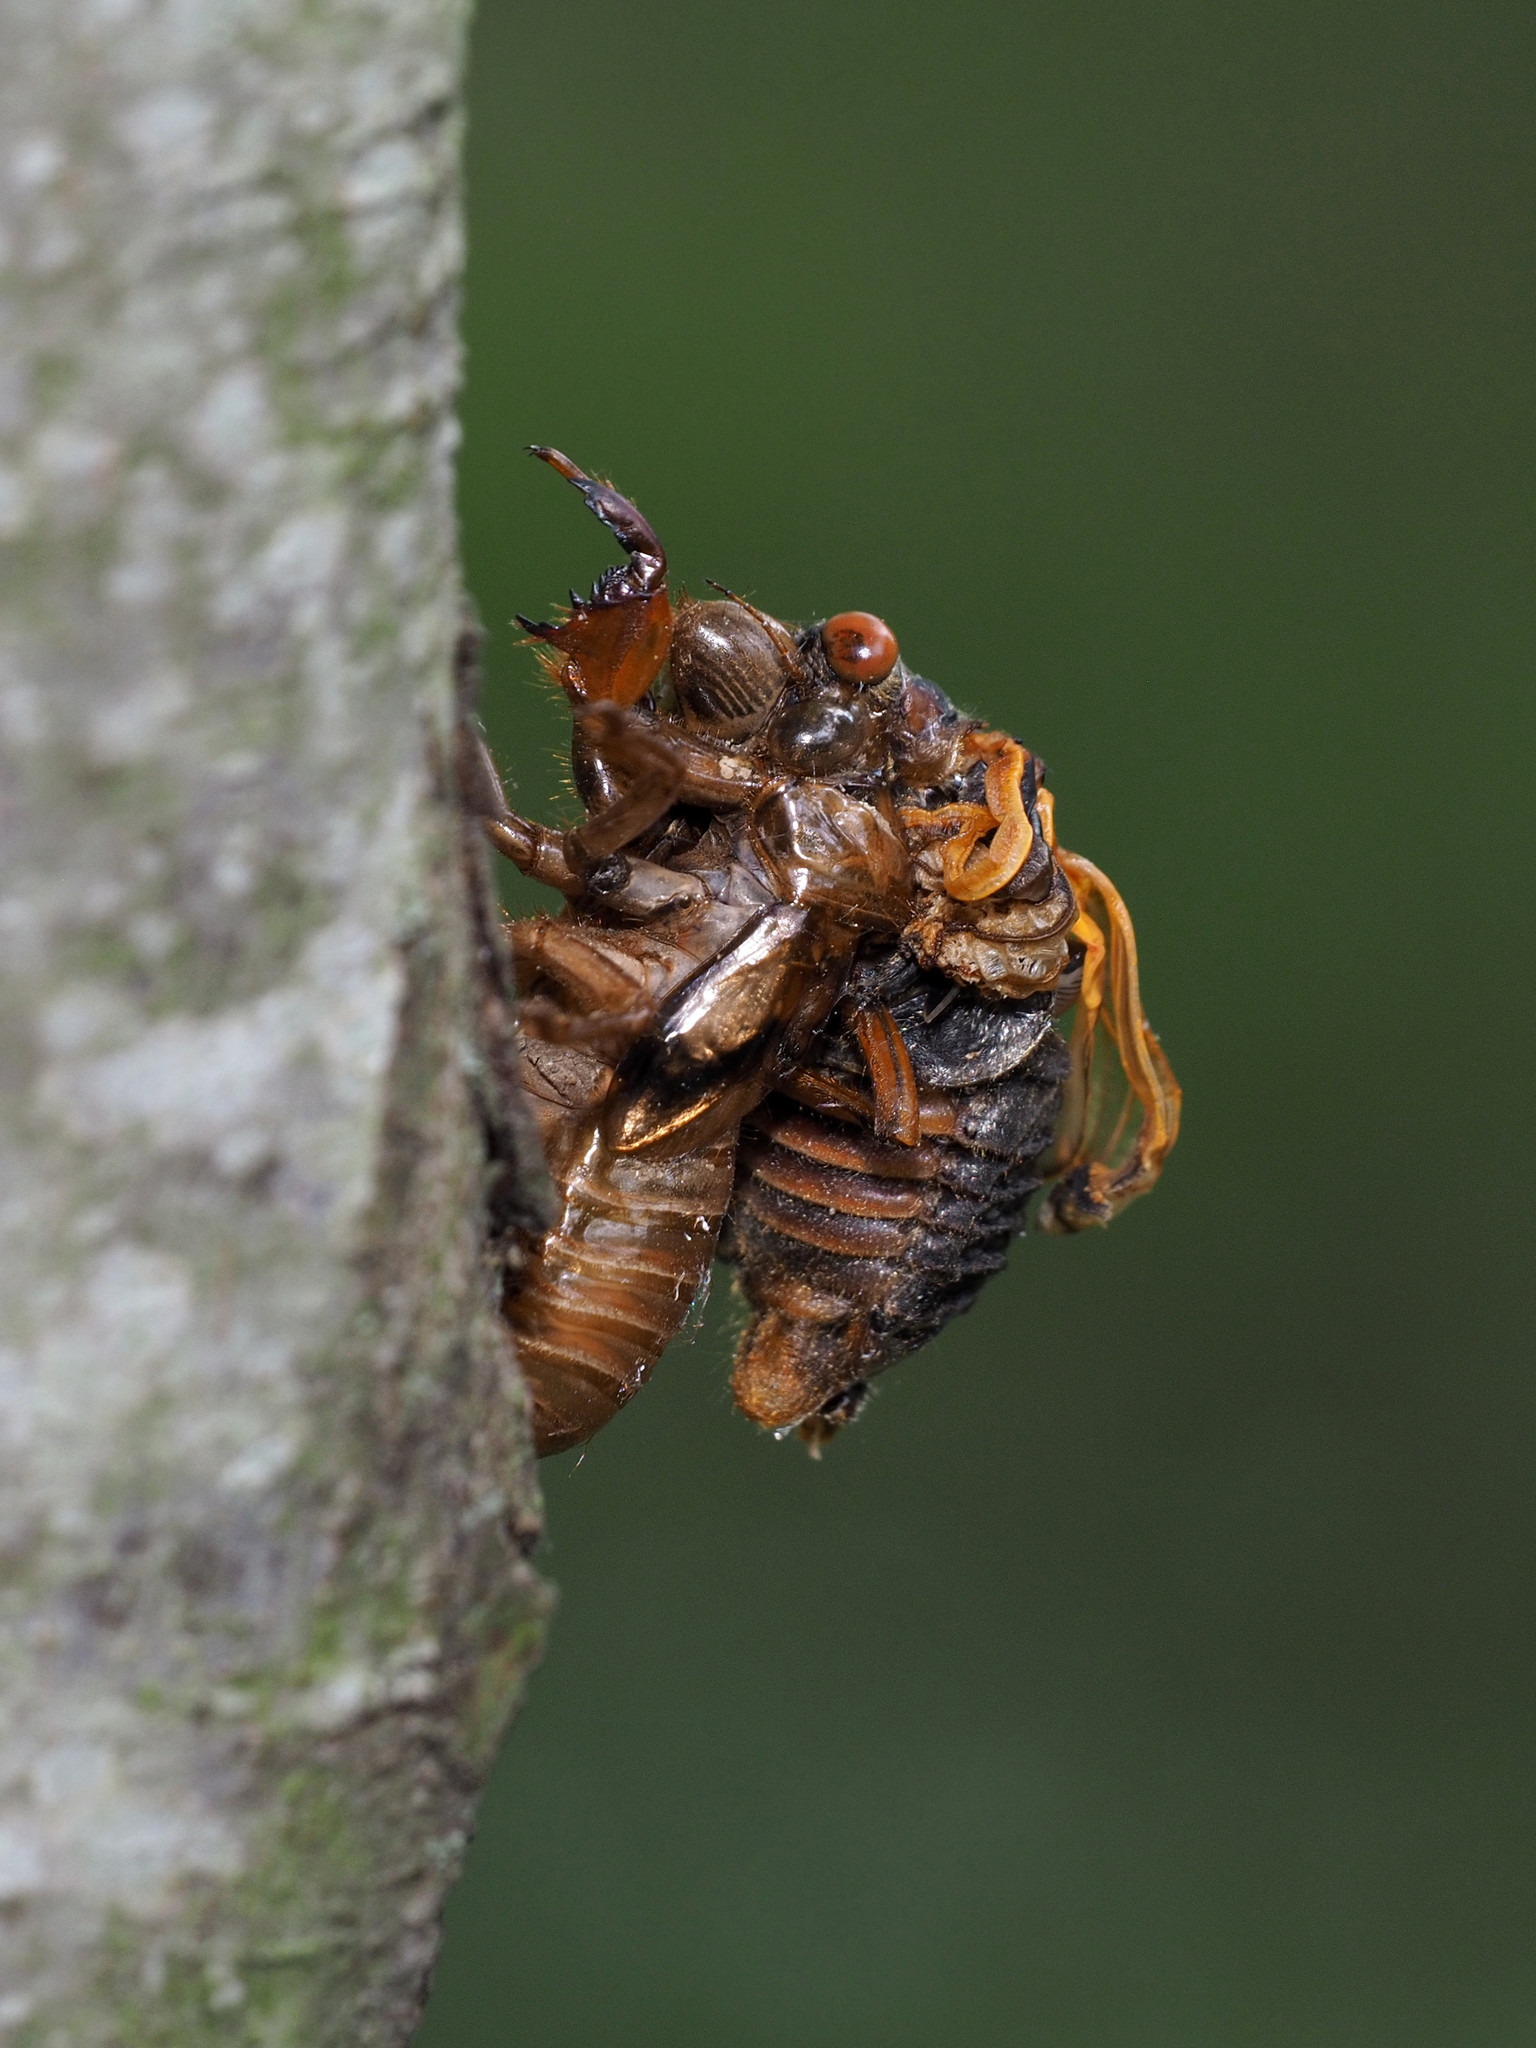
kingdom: Animalia
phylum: Arthropoda
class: Insecta
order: Hemiptera
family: Cicadidae
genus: Magicicada
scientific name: Magicicada septendecim
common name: Periodical cicada
